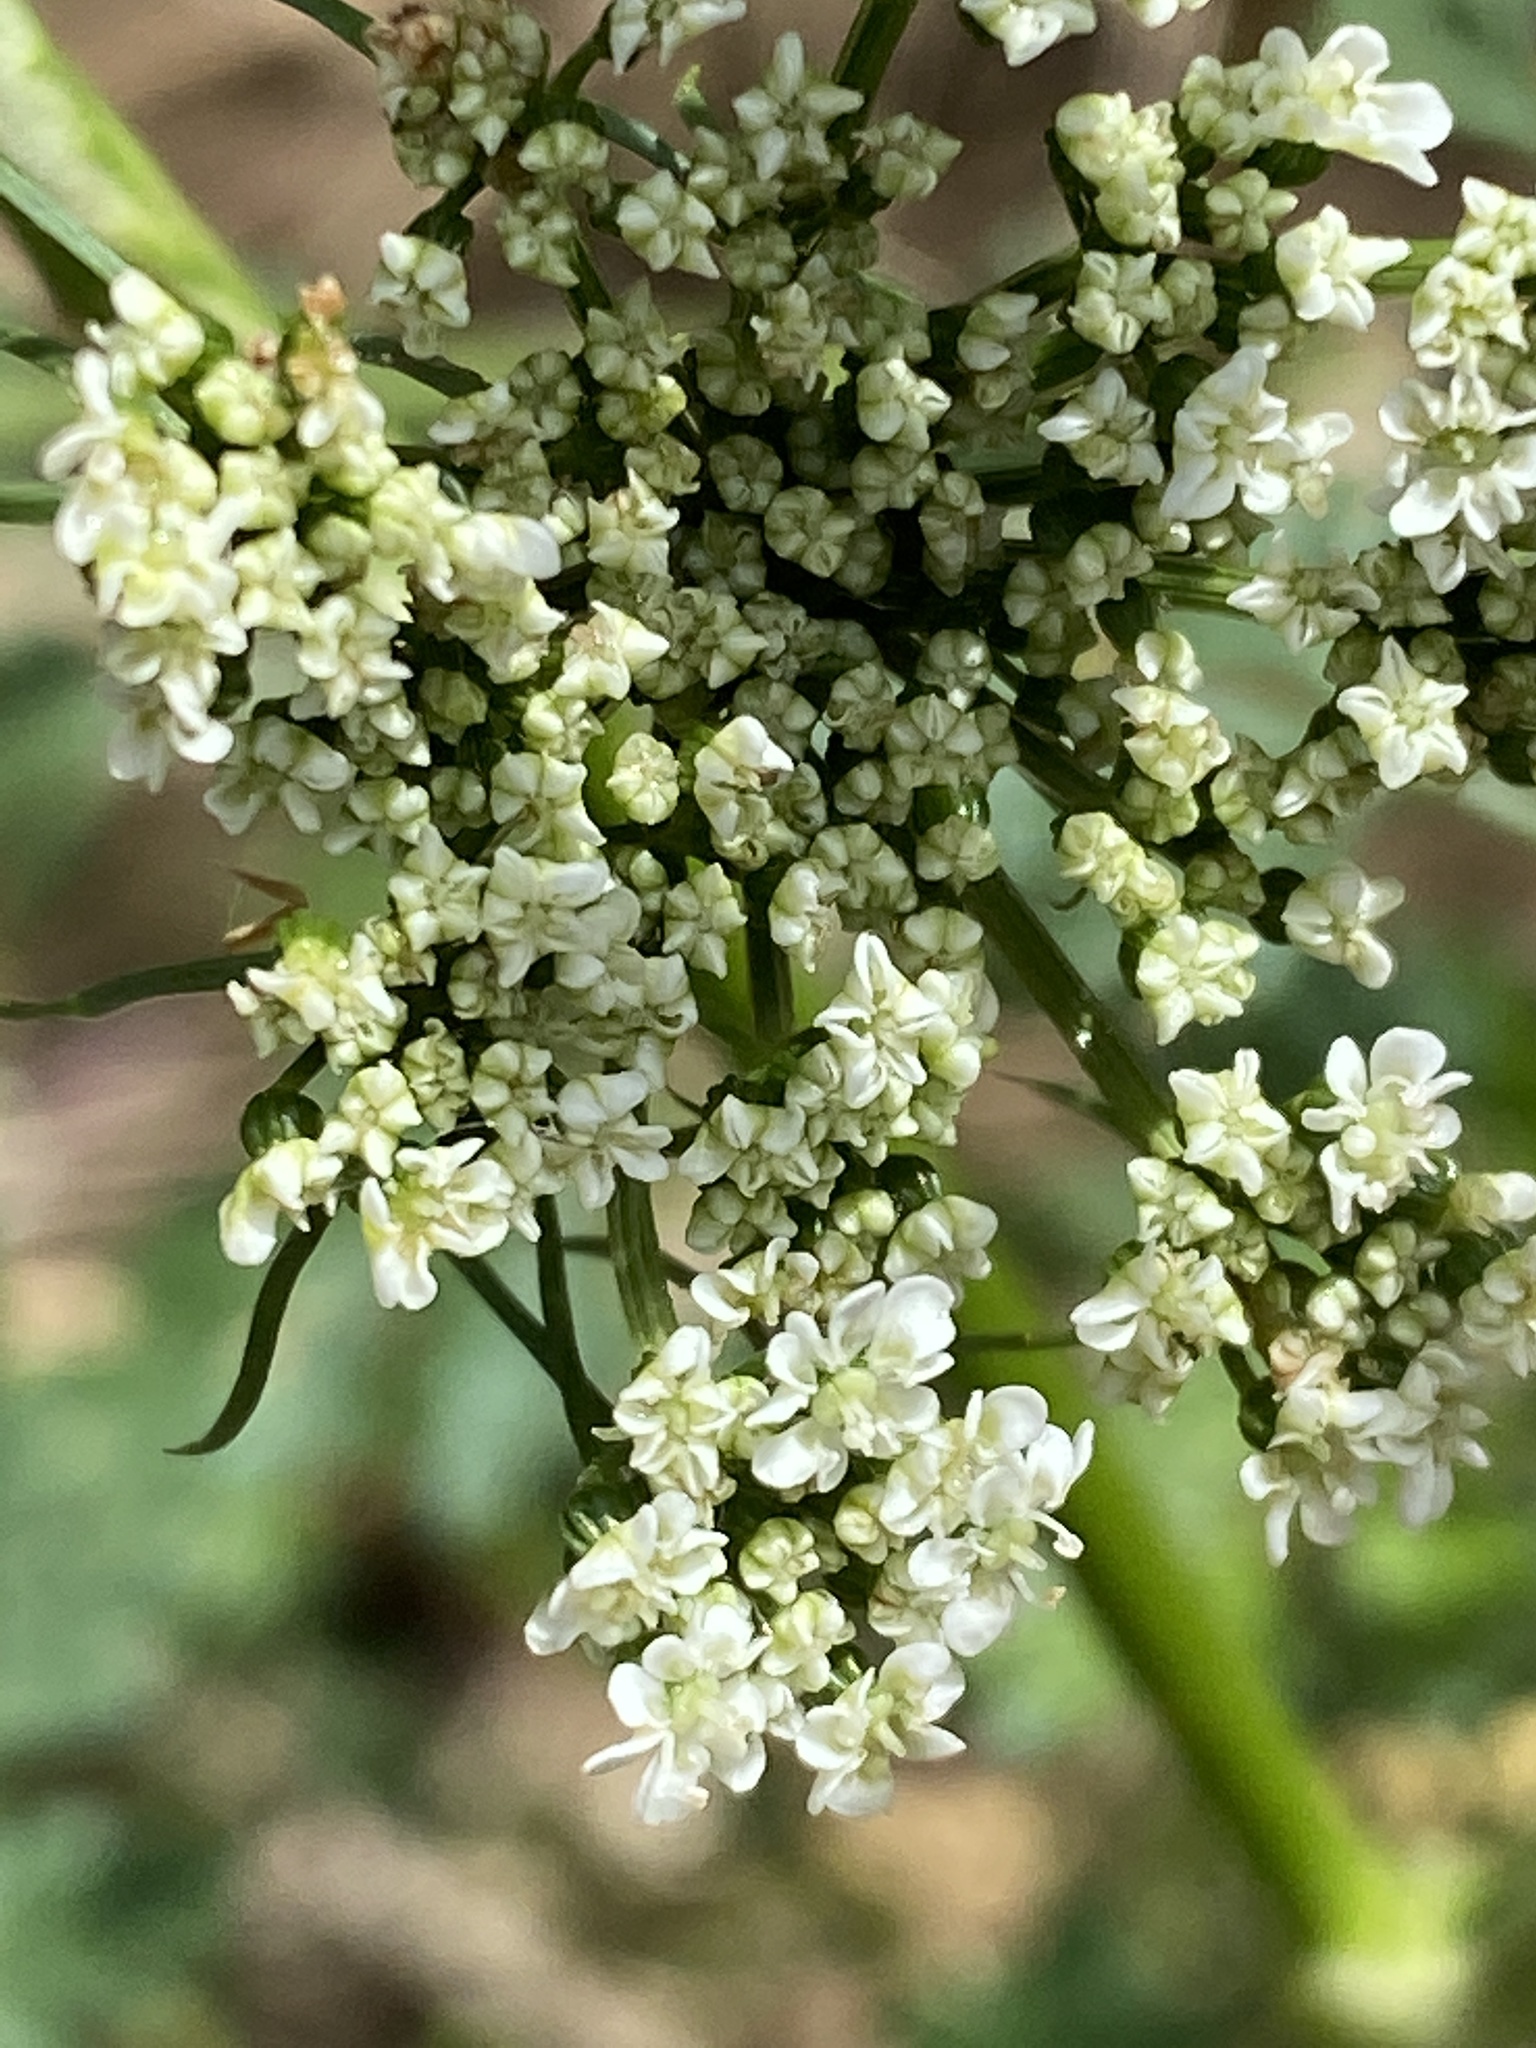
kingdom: Plantae
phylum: Tracheophyta
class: Magnoliopsida
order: Apiales
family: Apiaceae
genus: Aethusa
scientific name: Aethusa cynapium
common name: Fool's parsley
